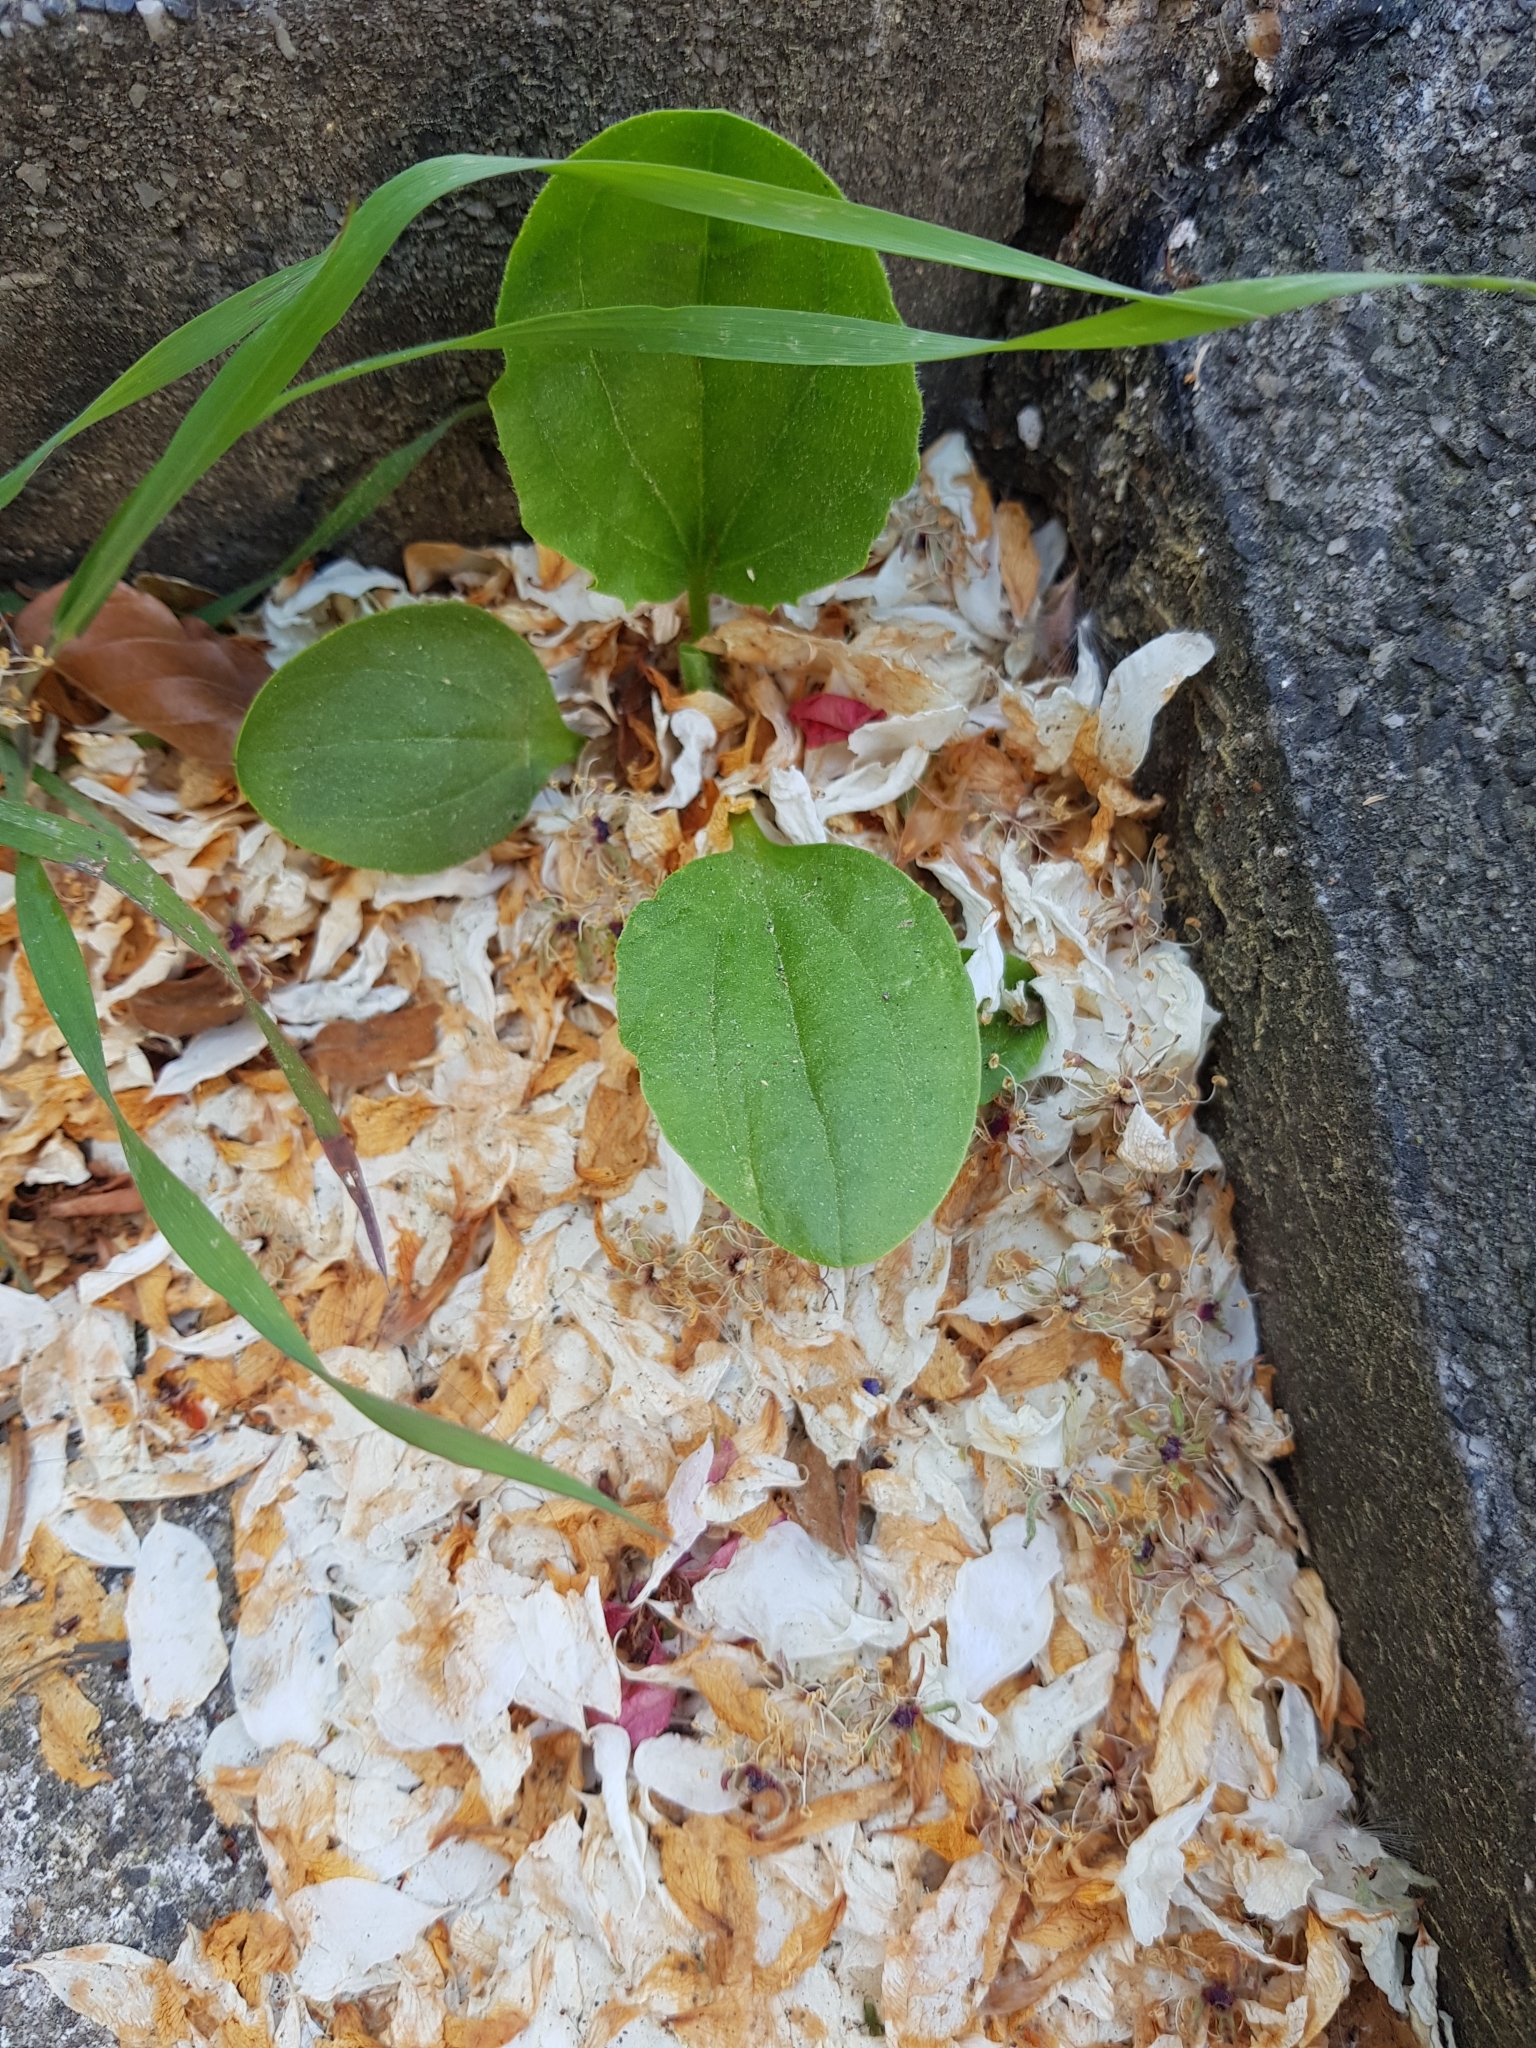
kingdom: Plantae
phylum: Tracheophyta
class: Magnoliopsida
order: Lamiales
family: Plantaginaceae
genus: Plantago
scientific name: Plantago major
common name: Common plantain
